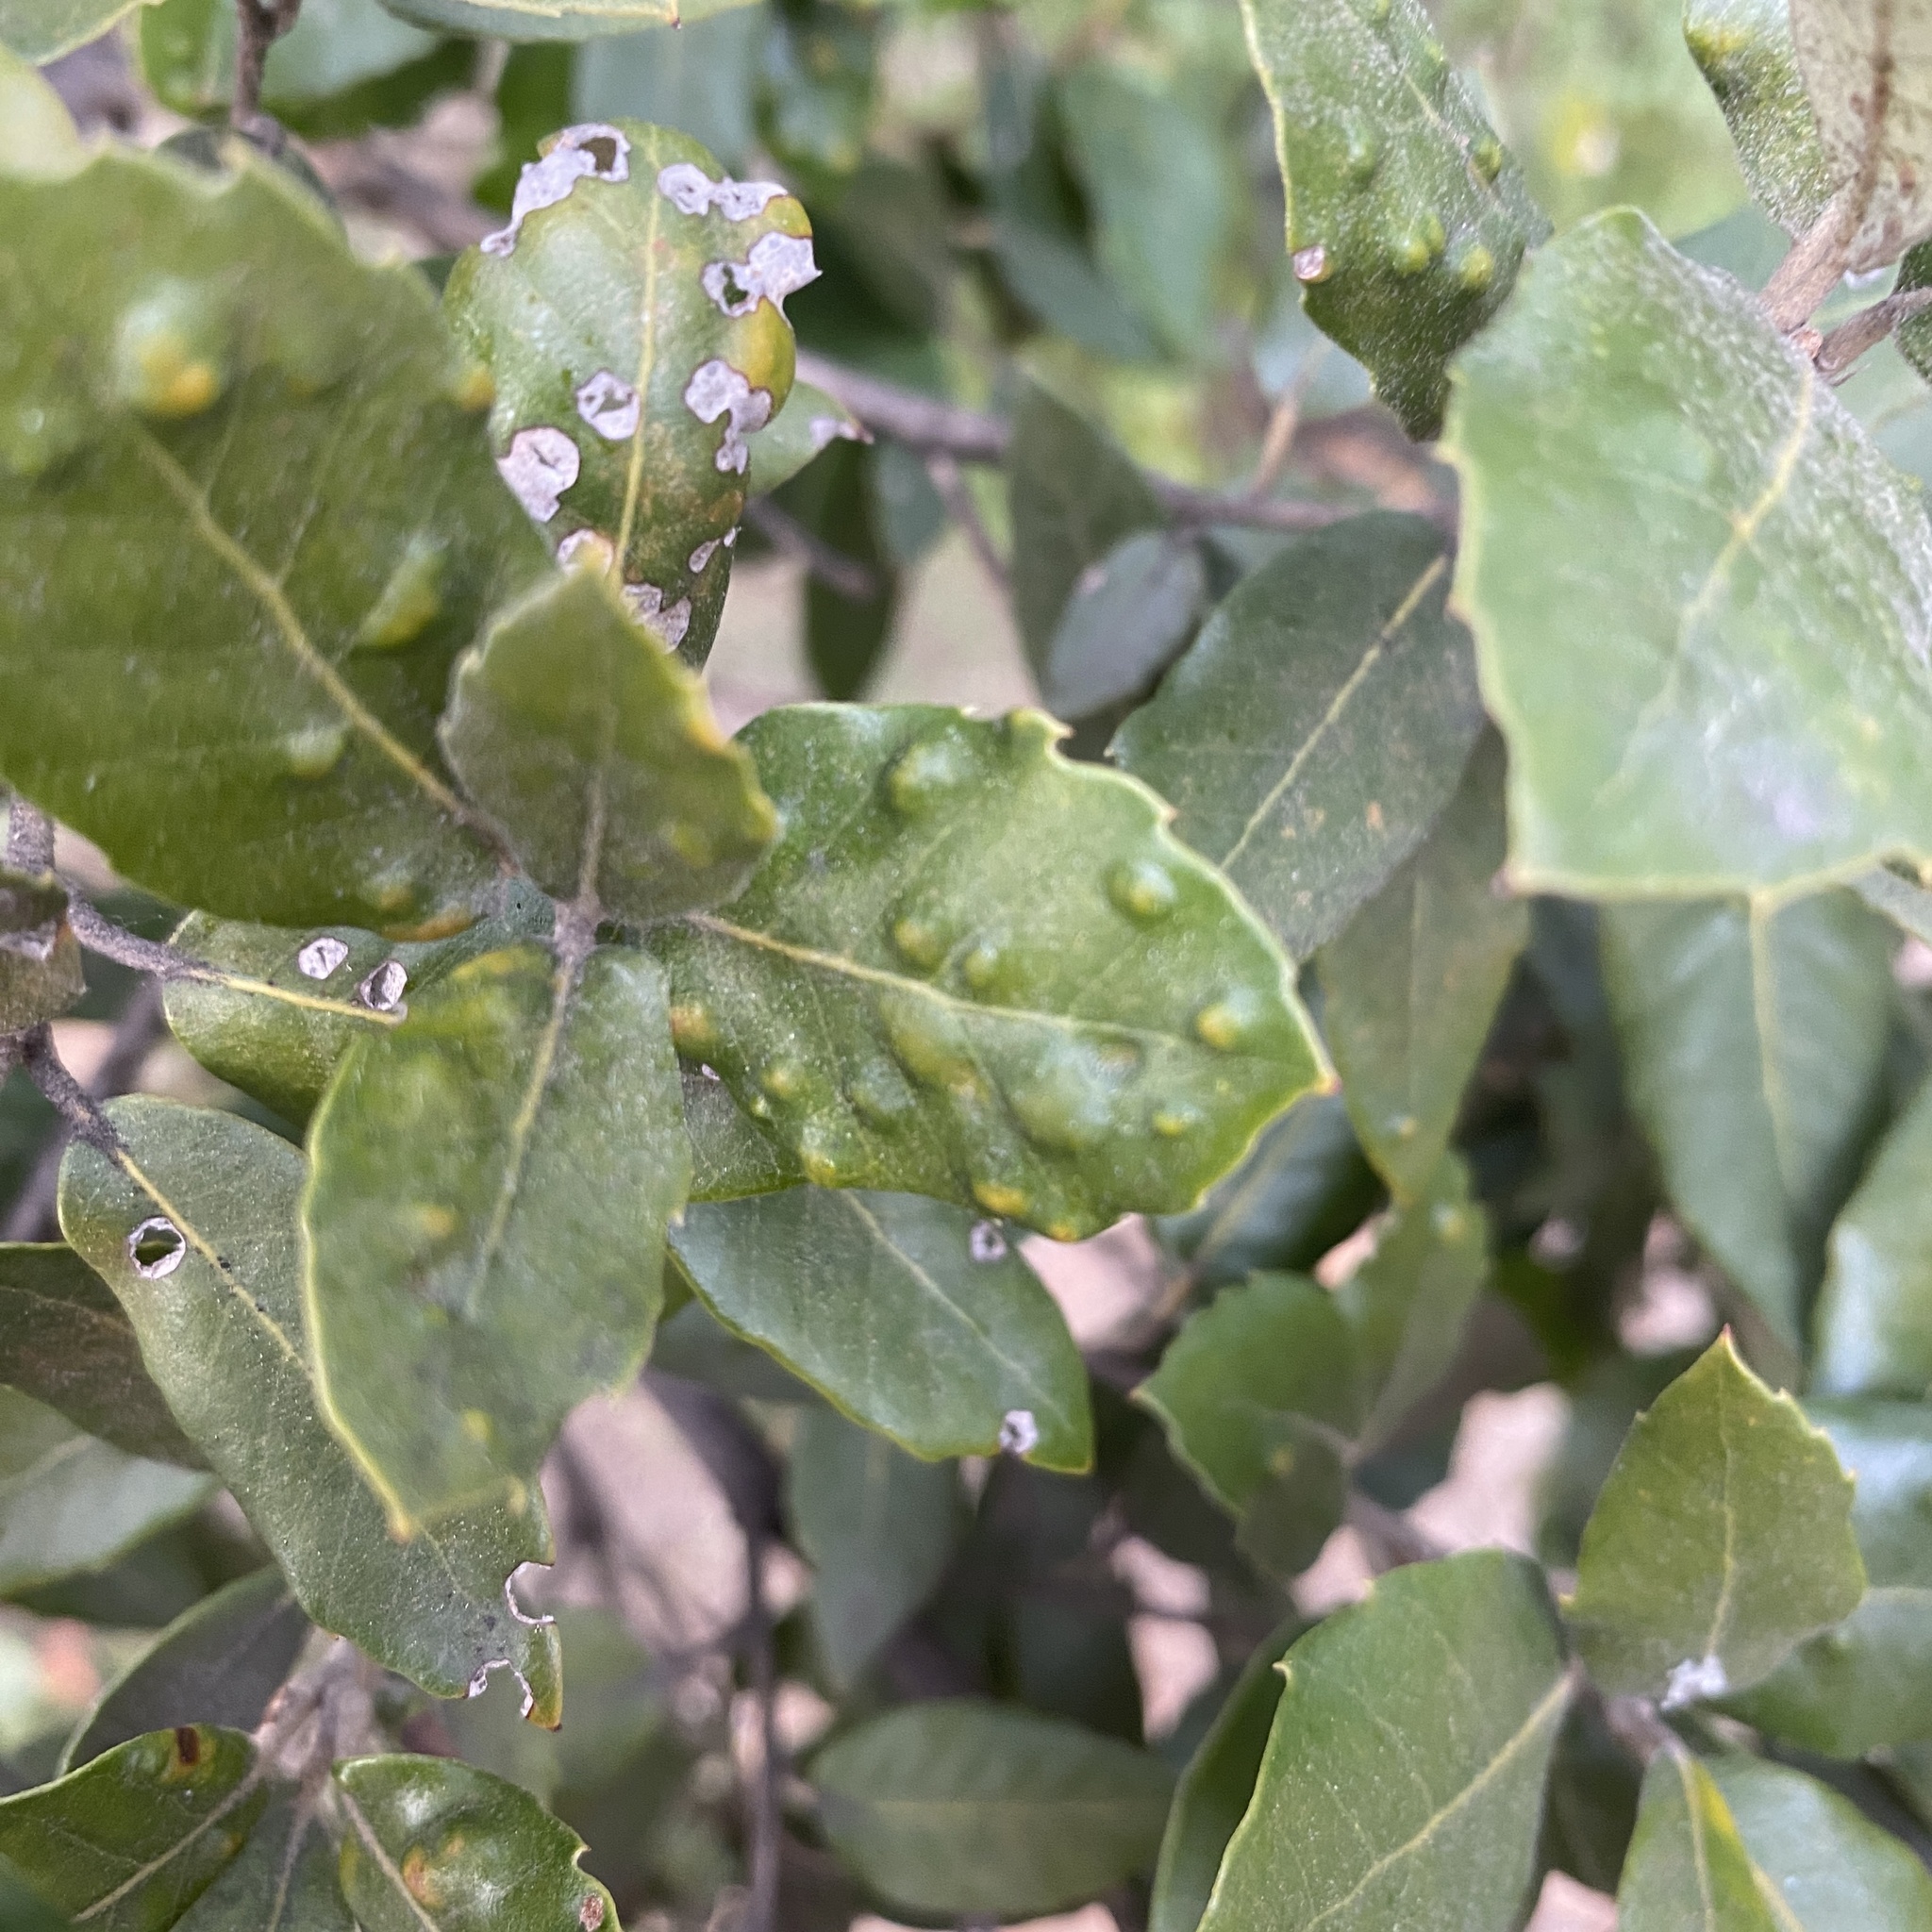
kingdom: Animalia
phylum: Arthropoda
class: Arachnida
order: Trombidiformes
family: Eriophyidae
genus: Aceria
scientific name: Aceria ilicis
